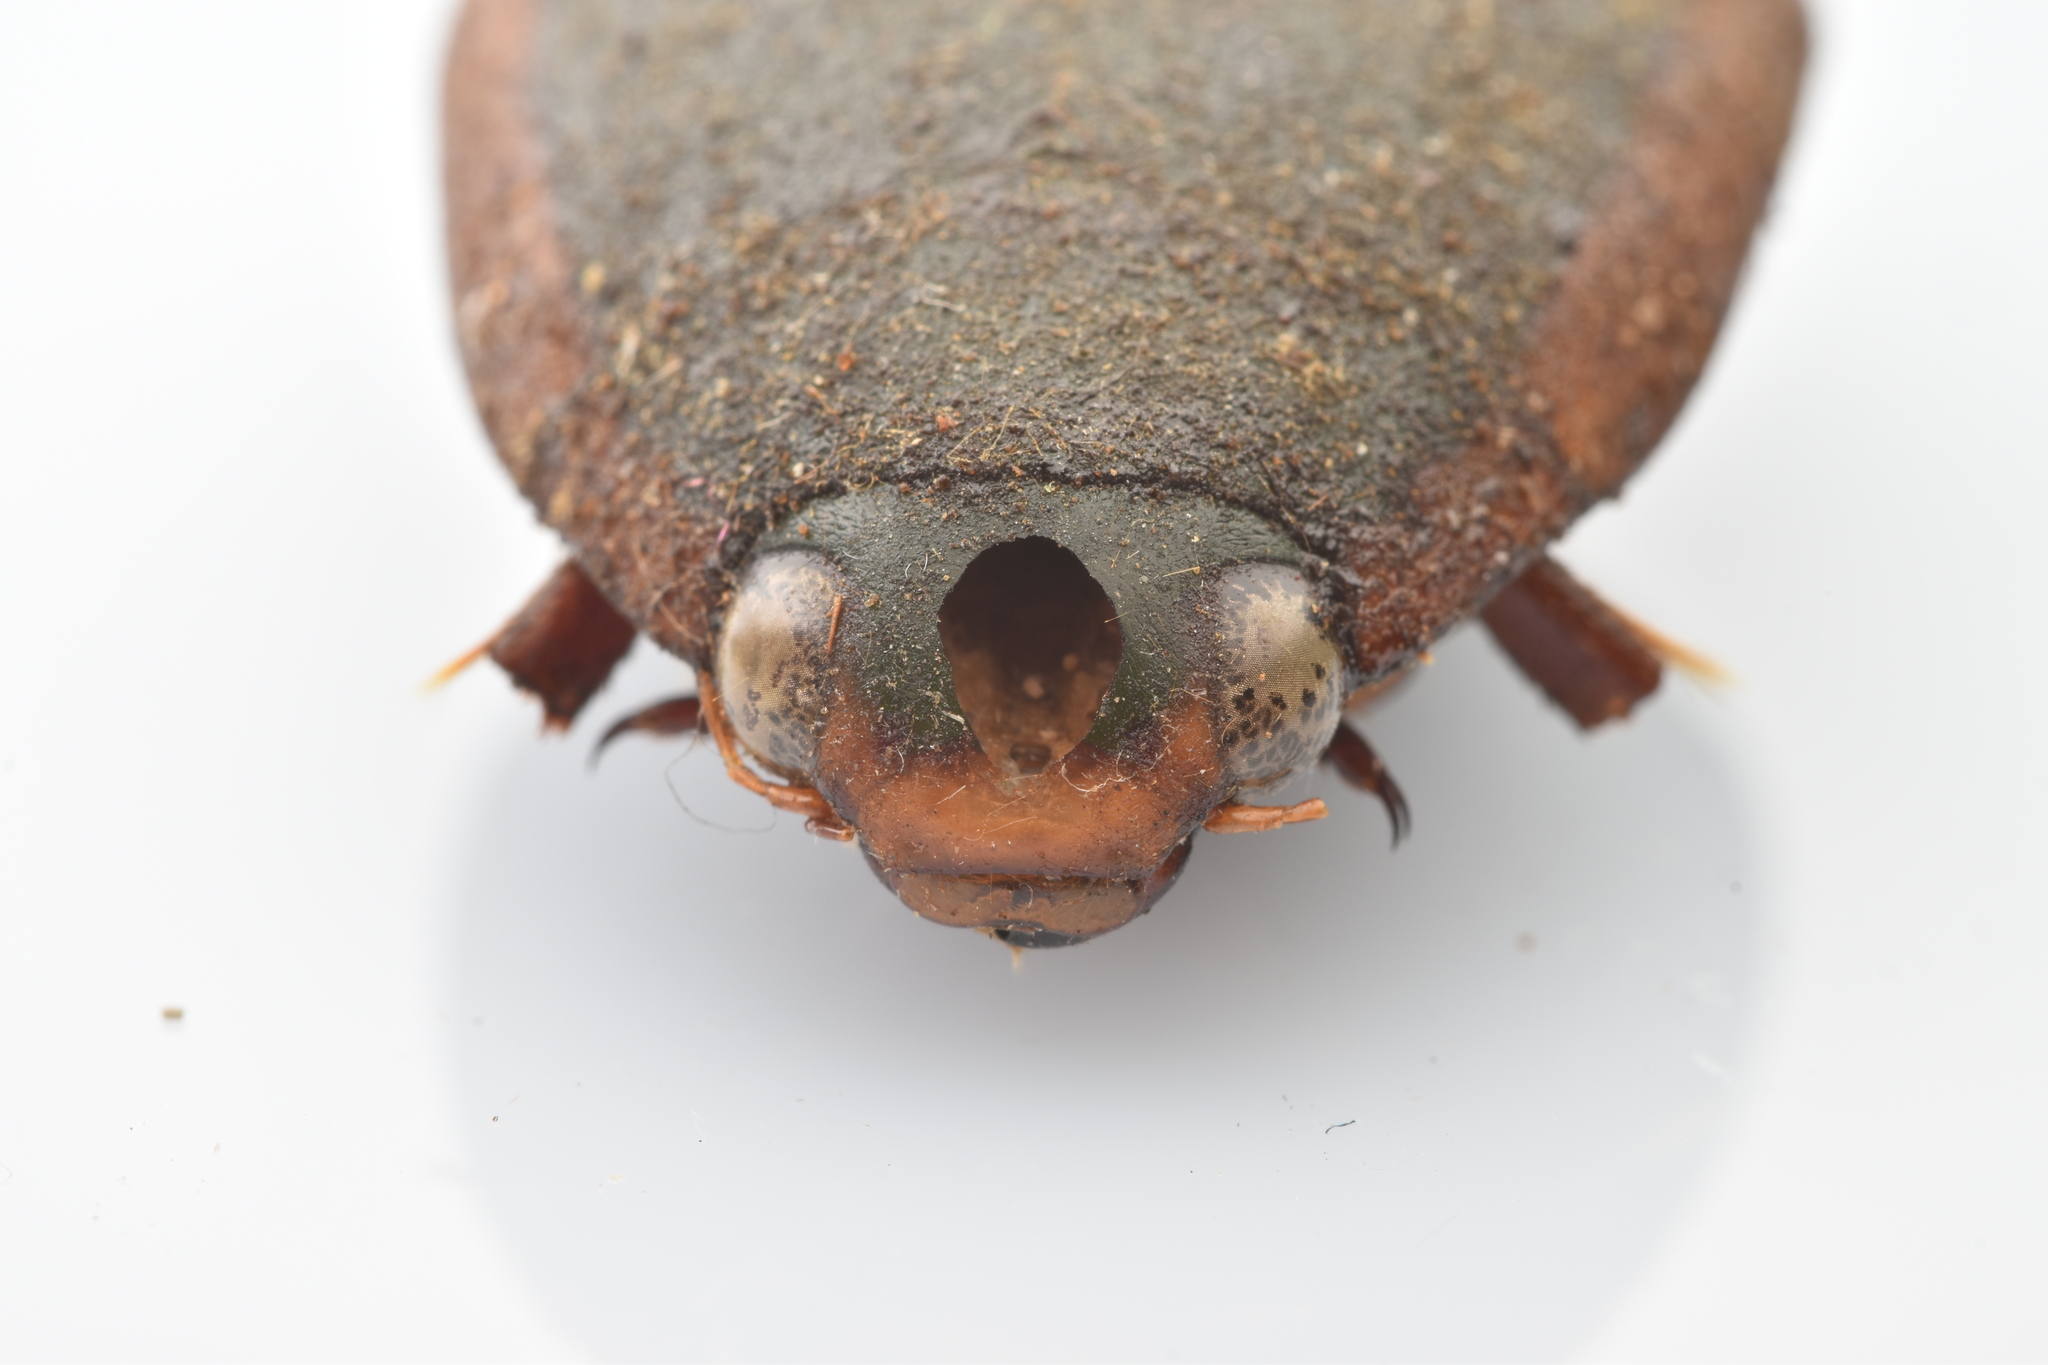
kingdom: Animalia
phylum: Arthropoda
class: Insecta
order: Coleoptera
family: Dytiscidae
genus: Cybister
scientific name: Cybister fimbriolatus
